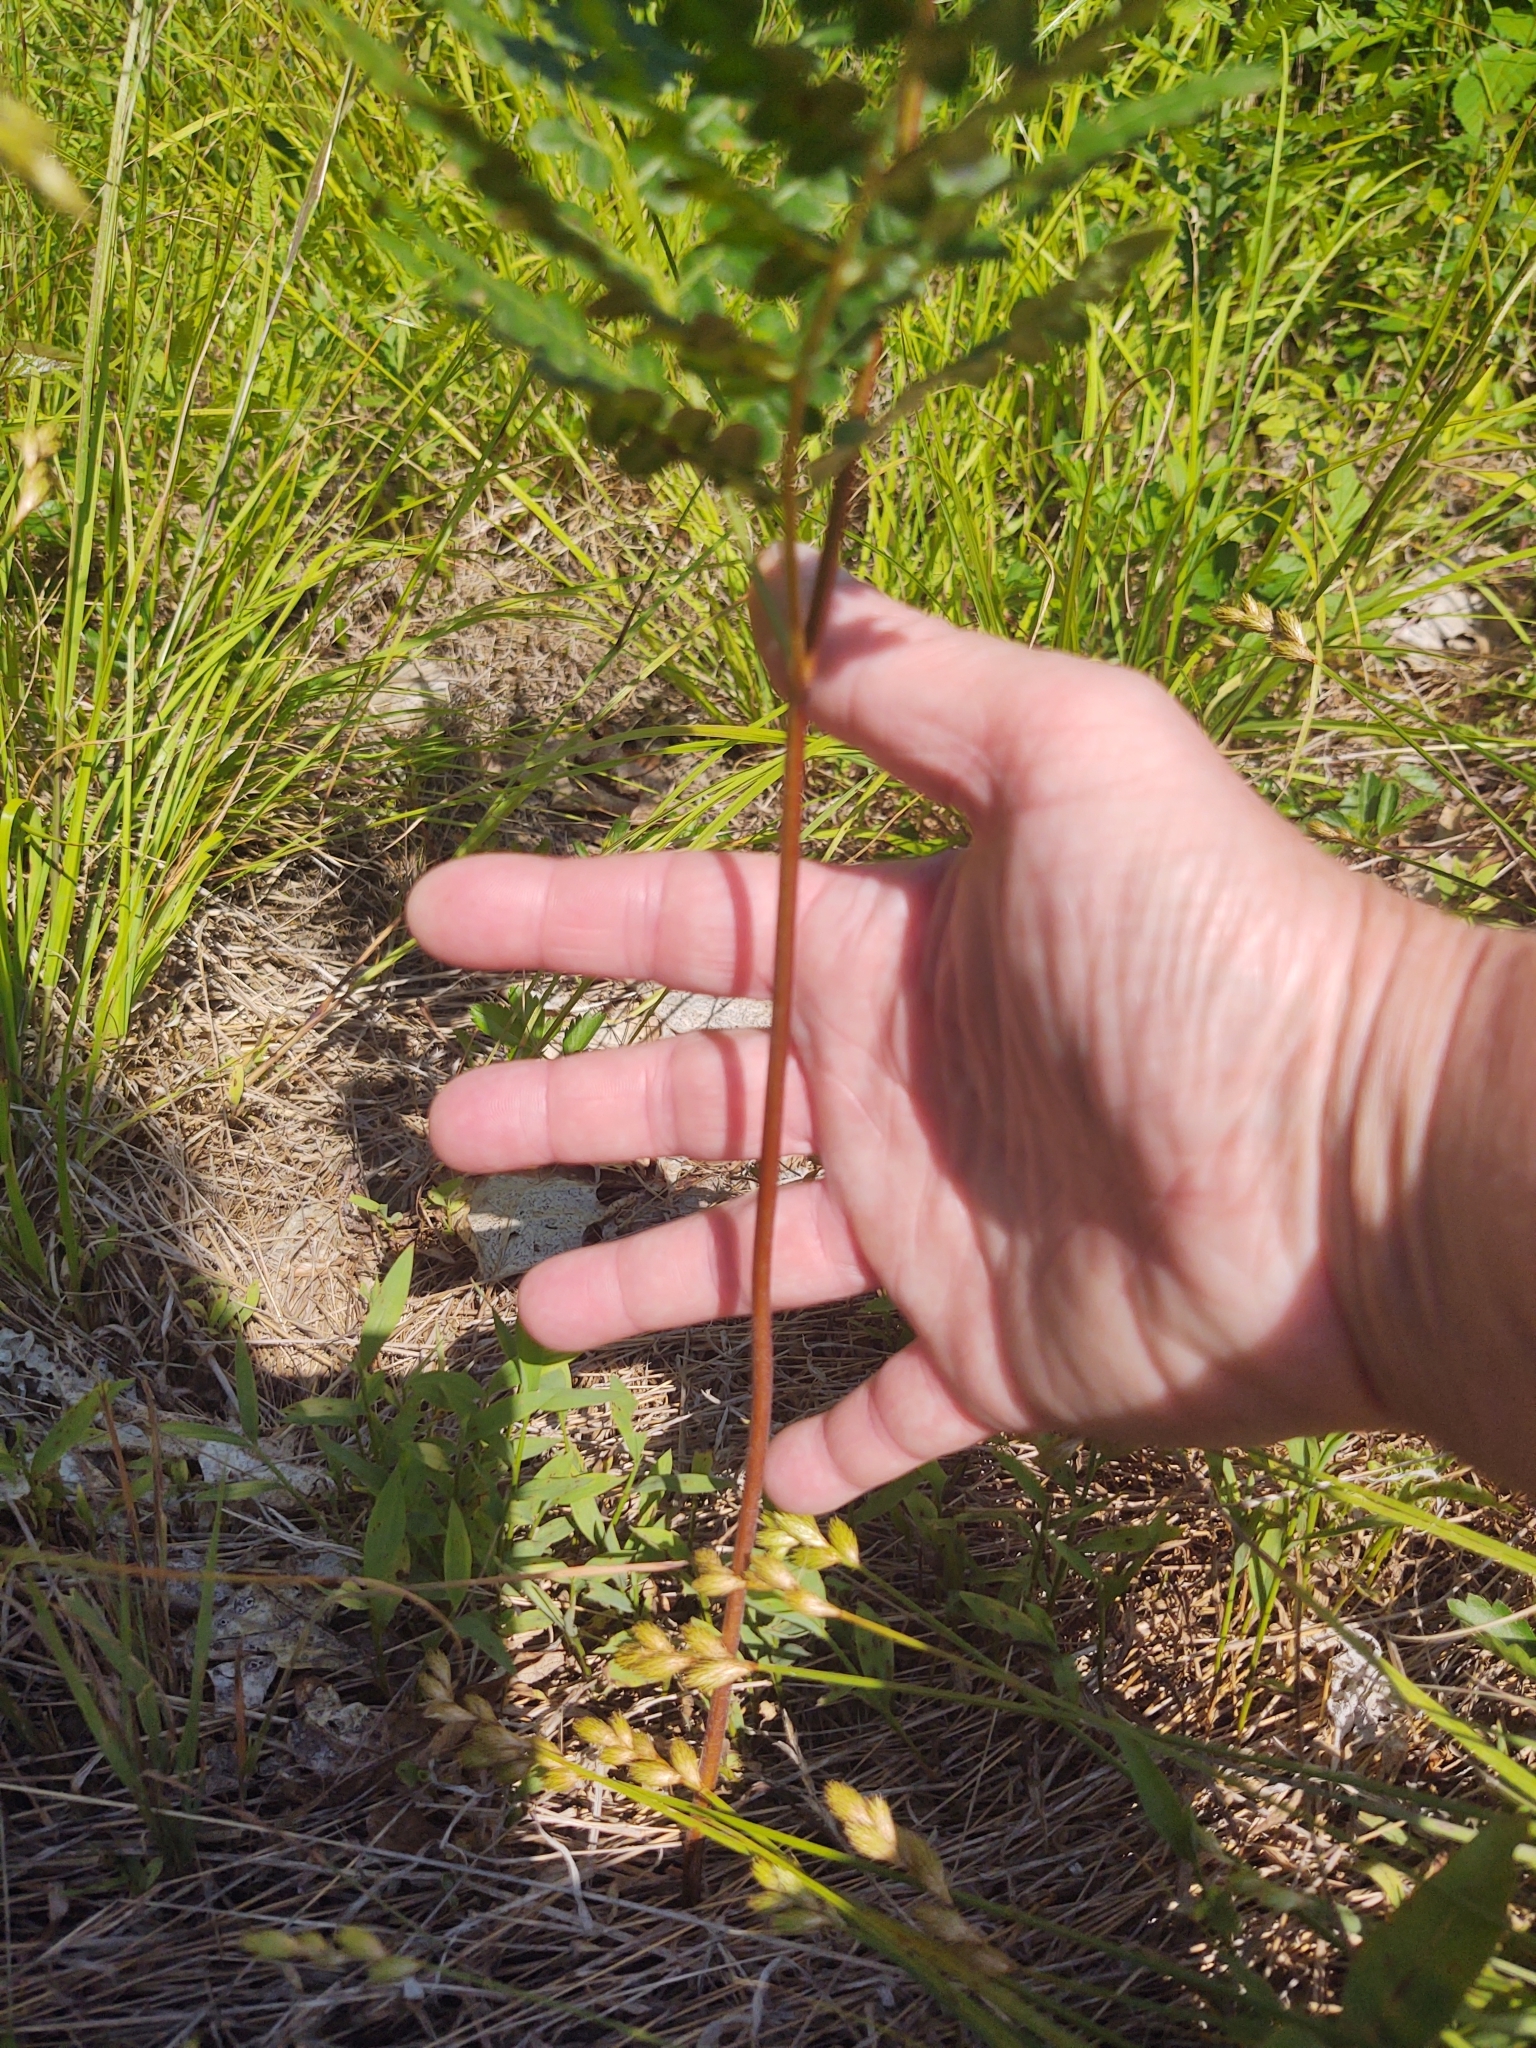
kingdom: Plantae
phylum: Tracheophyta
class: Polypodiopsida
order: Polypodiales
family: Dennstaedtiaceae
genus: Pteridium
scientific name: Pteridium aquilinum
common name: Bracken
